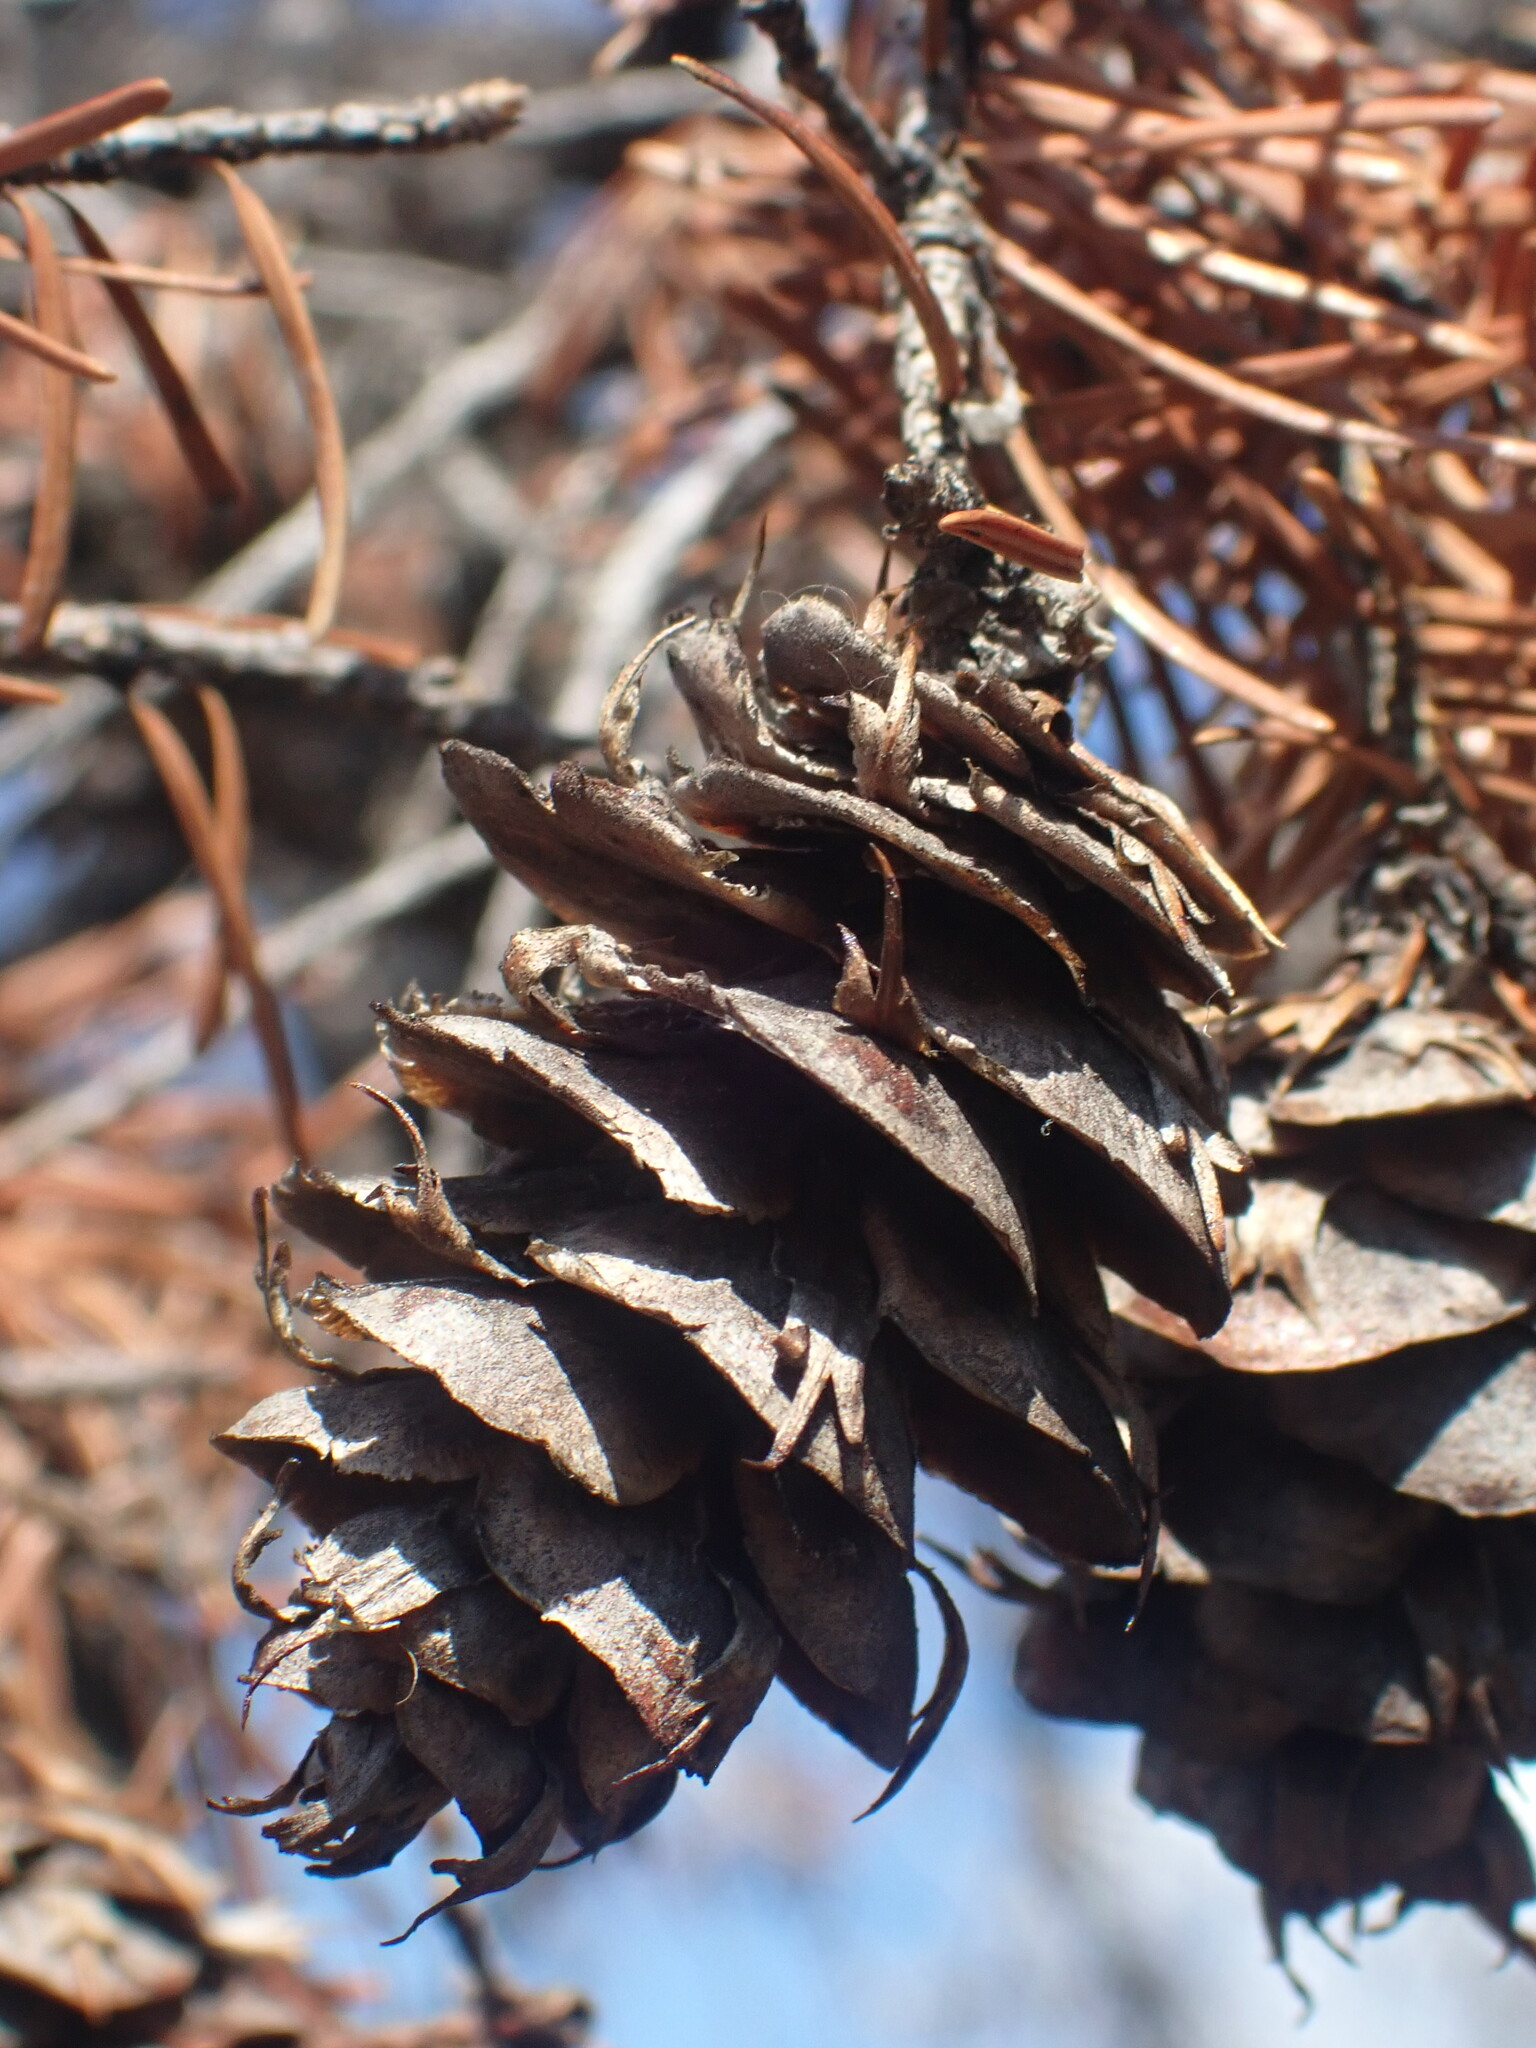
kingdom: Plantae
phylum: Tracheophyta
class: Pinopsida
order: Pinales
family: Pinaceae
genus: Pseudotsuga
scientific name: Pseudotsuga menziesii
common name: Douglas fir
